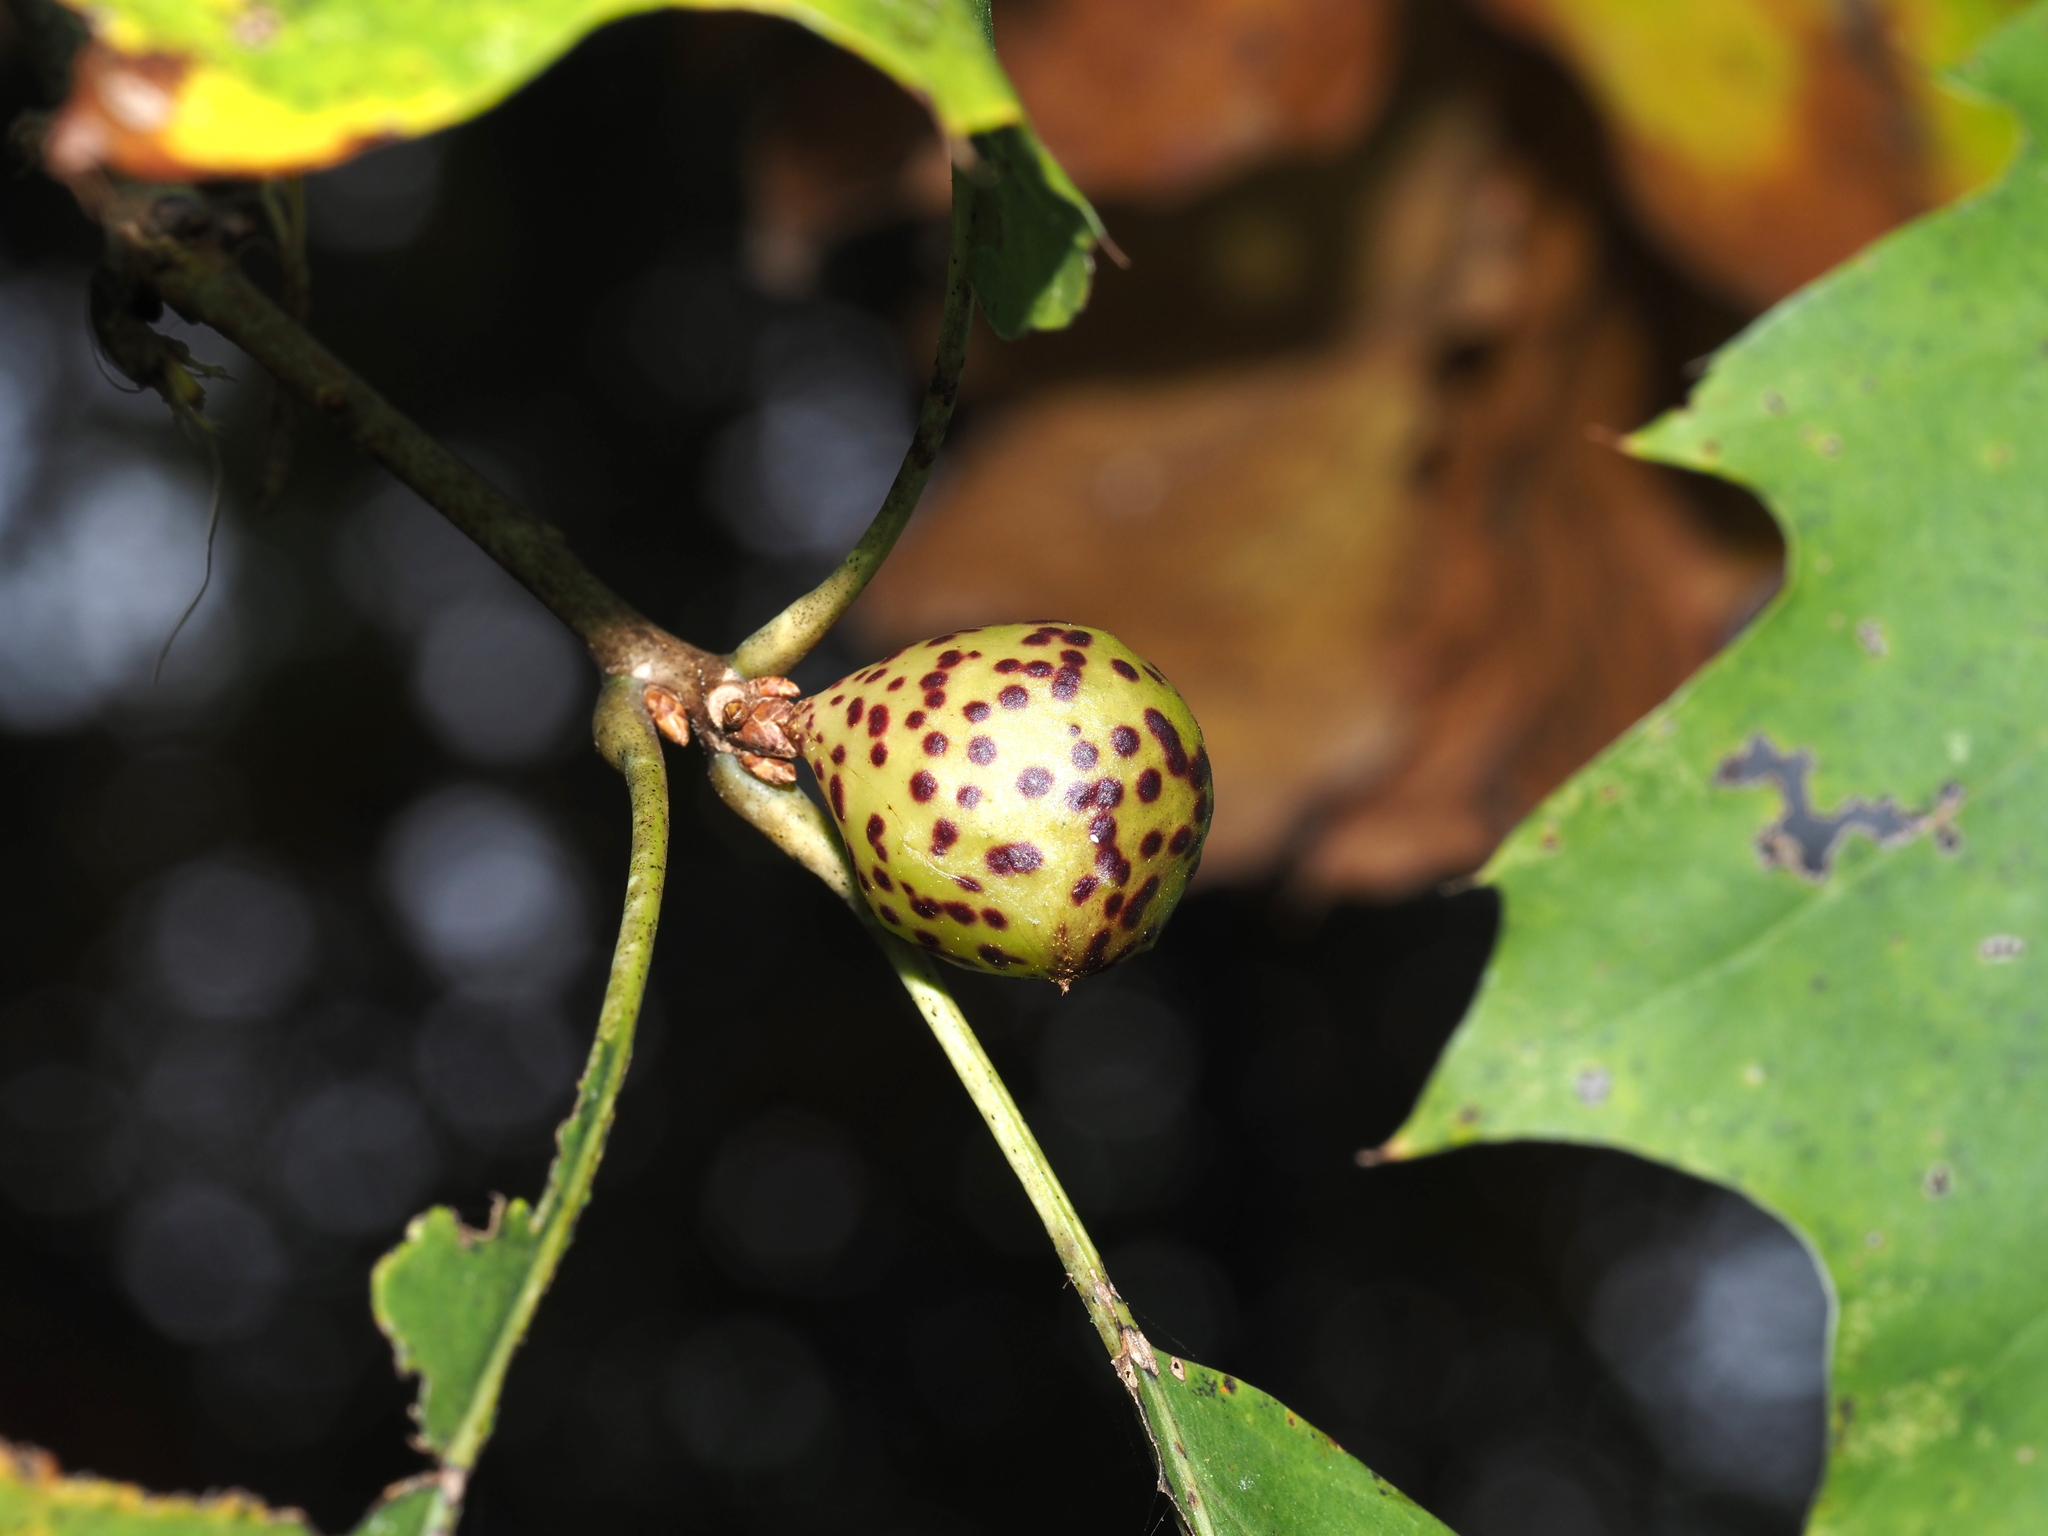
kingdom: Animalia
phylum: Arthropoda
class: Insecta
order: Hymenoptera
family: Cynipidae
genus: Amphibolips
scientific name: Amphibolips
